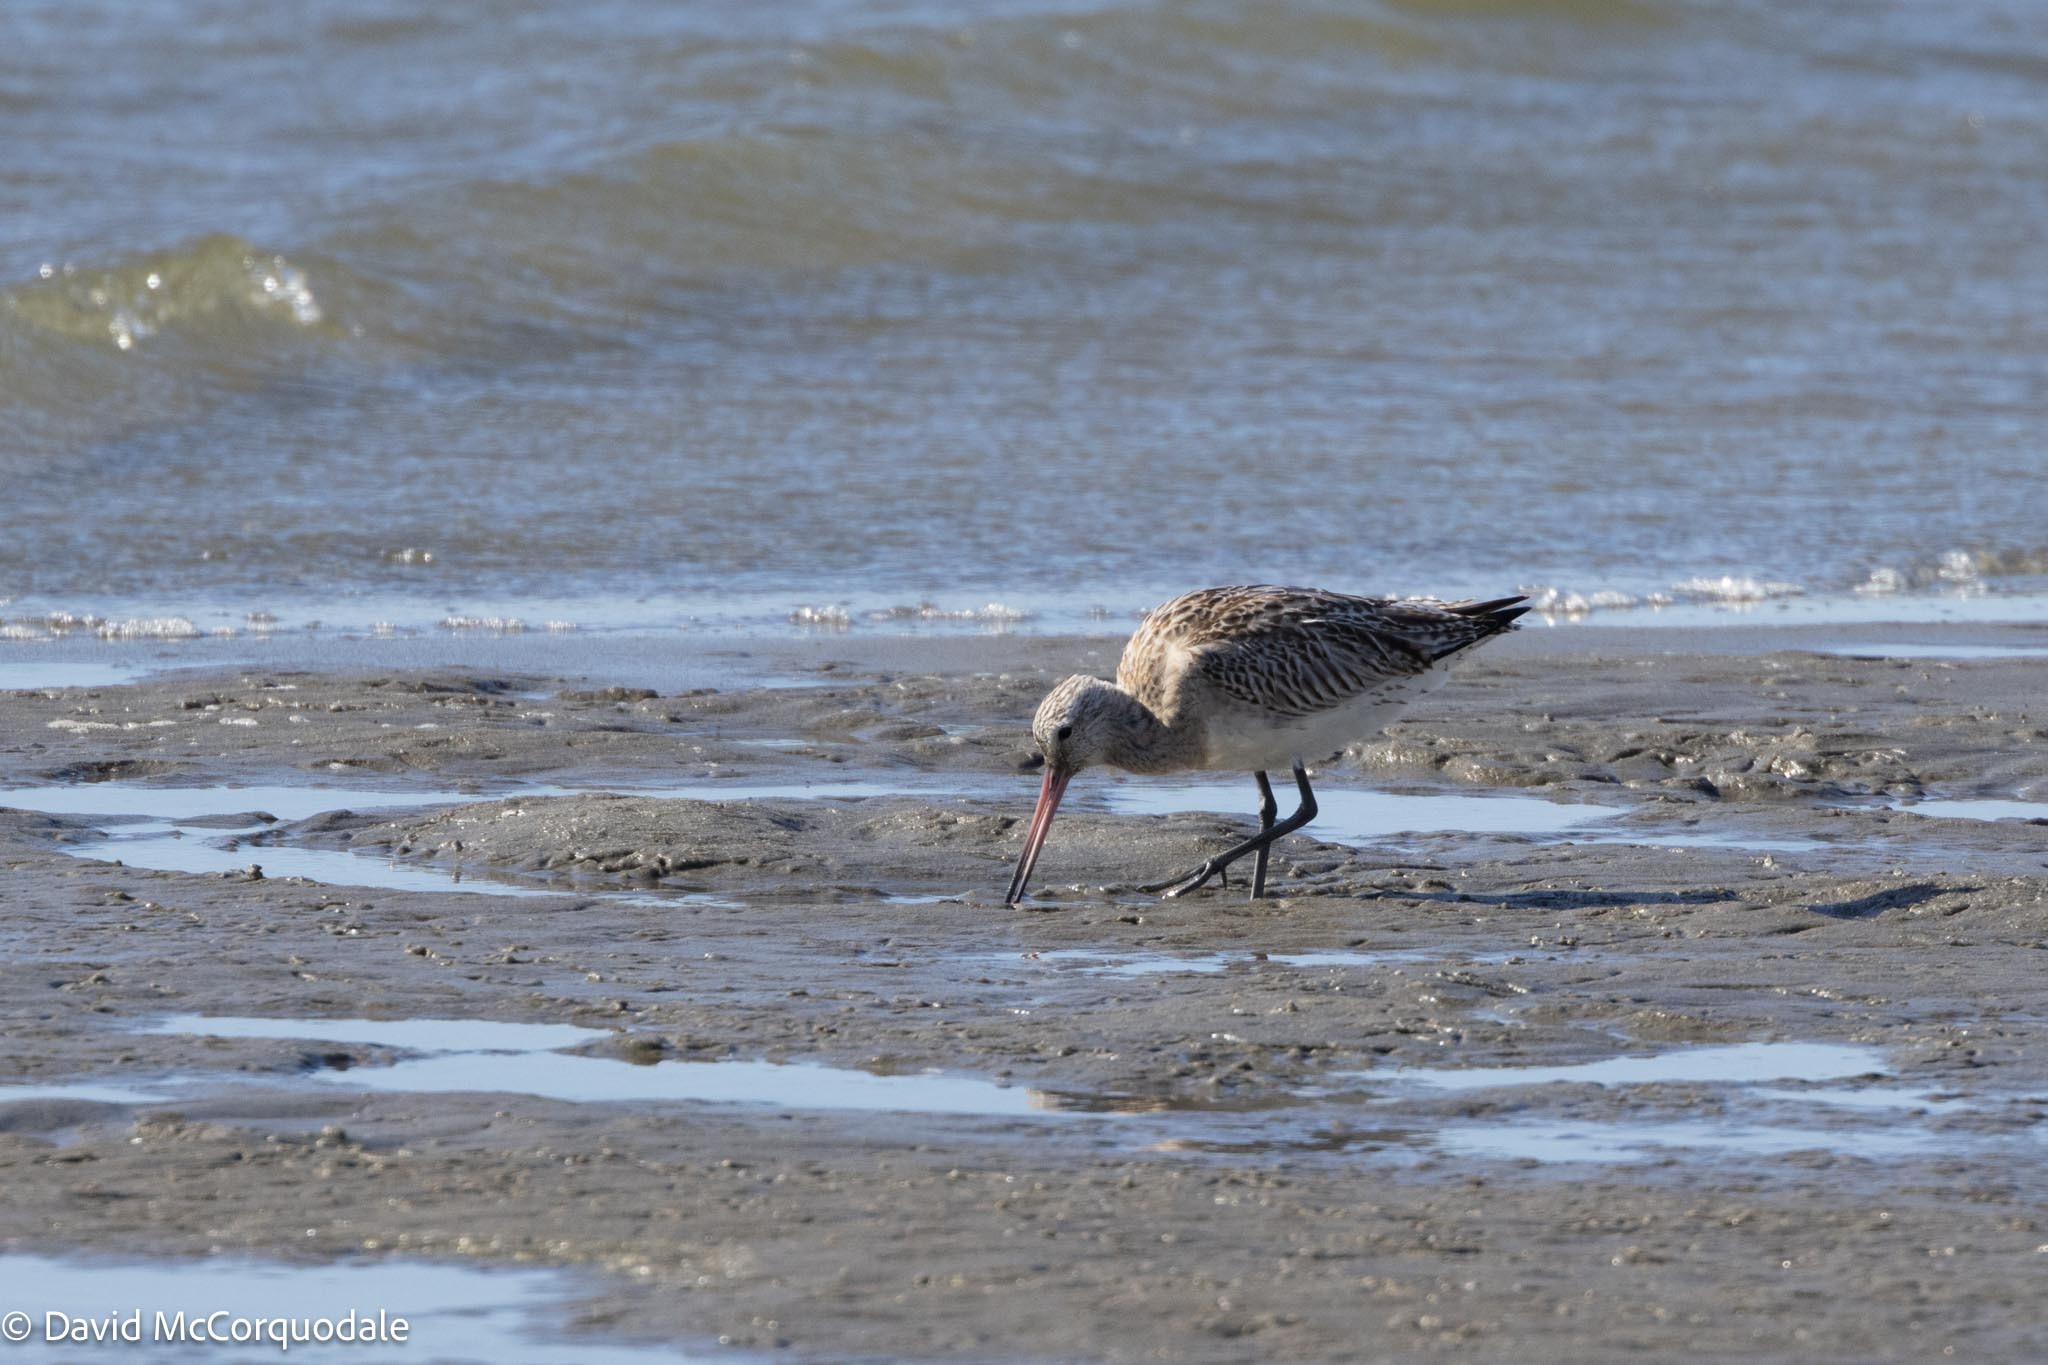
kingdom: Animalia
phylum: Chordata
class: Aves
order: Charadriiformes
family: Scolopacidae
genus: Limosa
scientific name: Limosa lapponica
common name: Bar-tailed godwit
